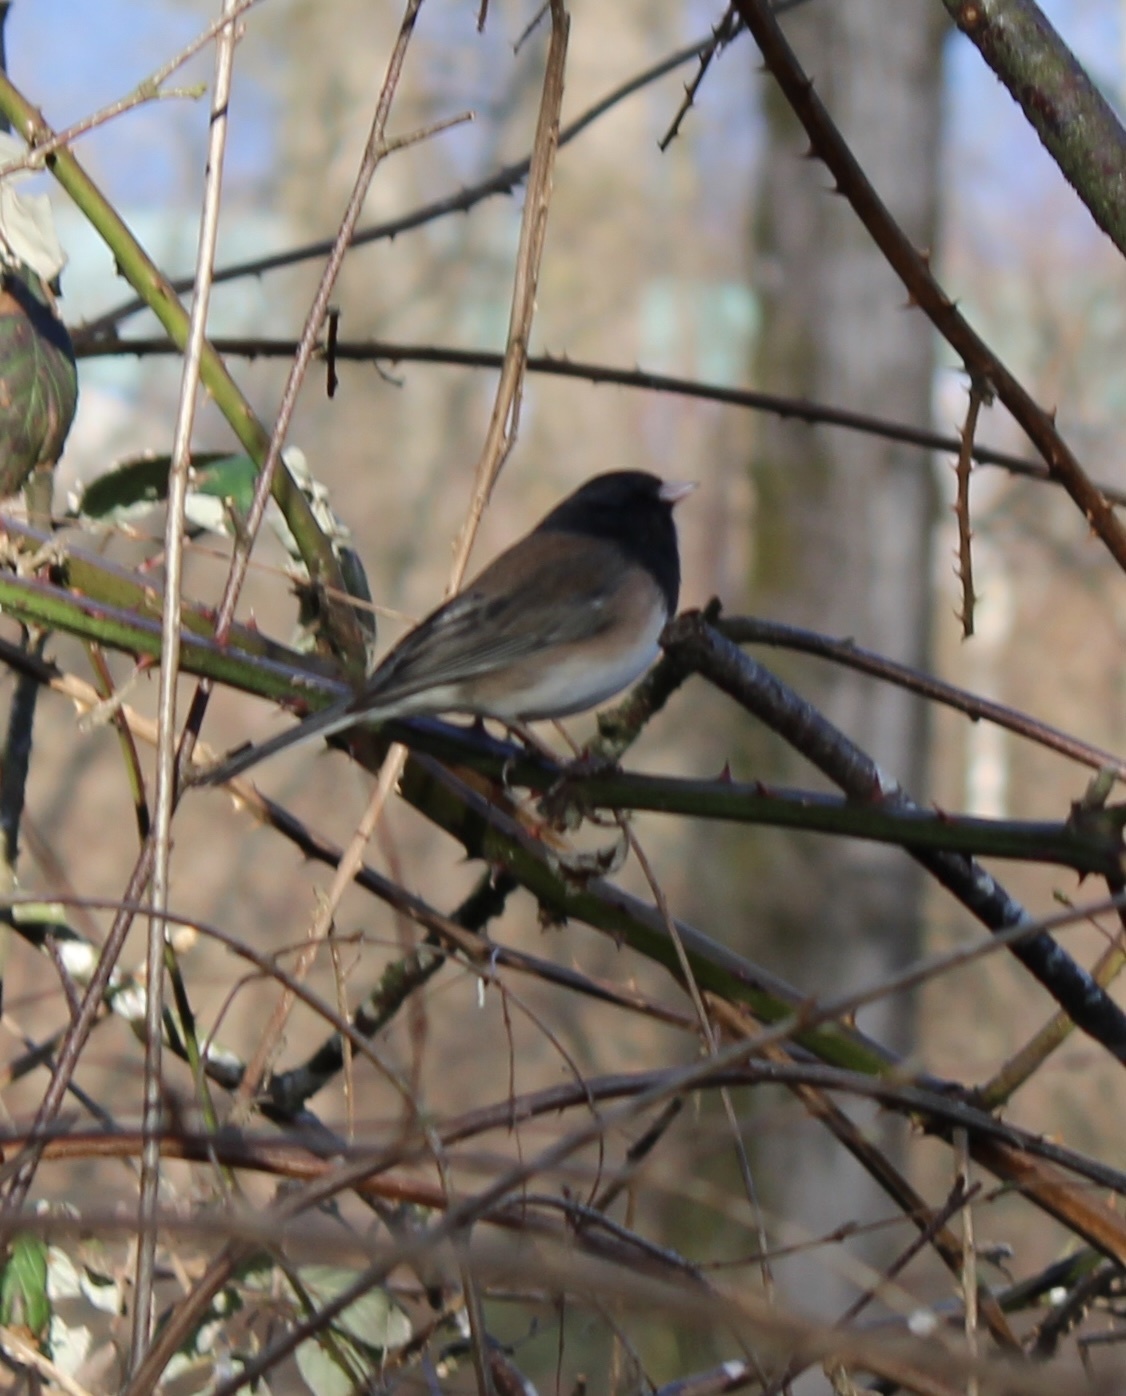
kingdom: Animalia
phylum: Chordata
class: Aves
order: Passeriformes
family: Passerellidae
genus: Junco
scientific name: Junco hyemalis
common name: Dark-eyed junco
